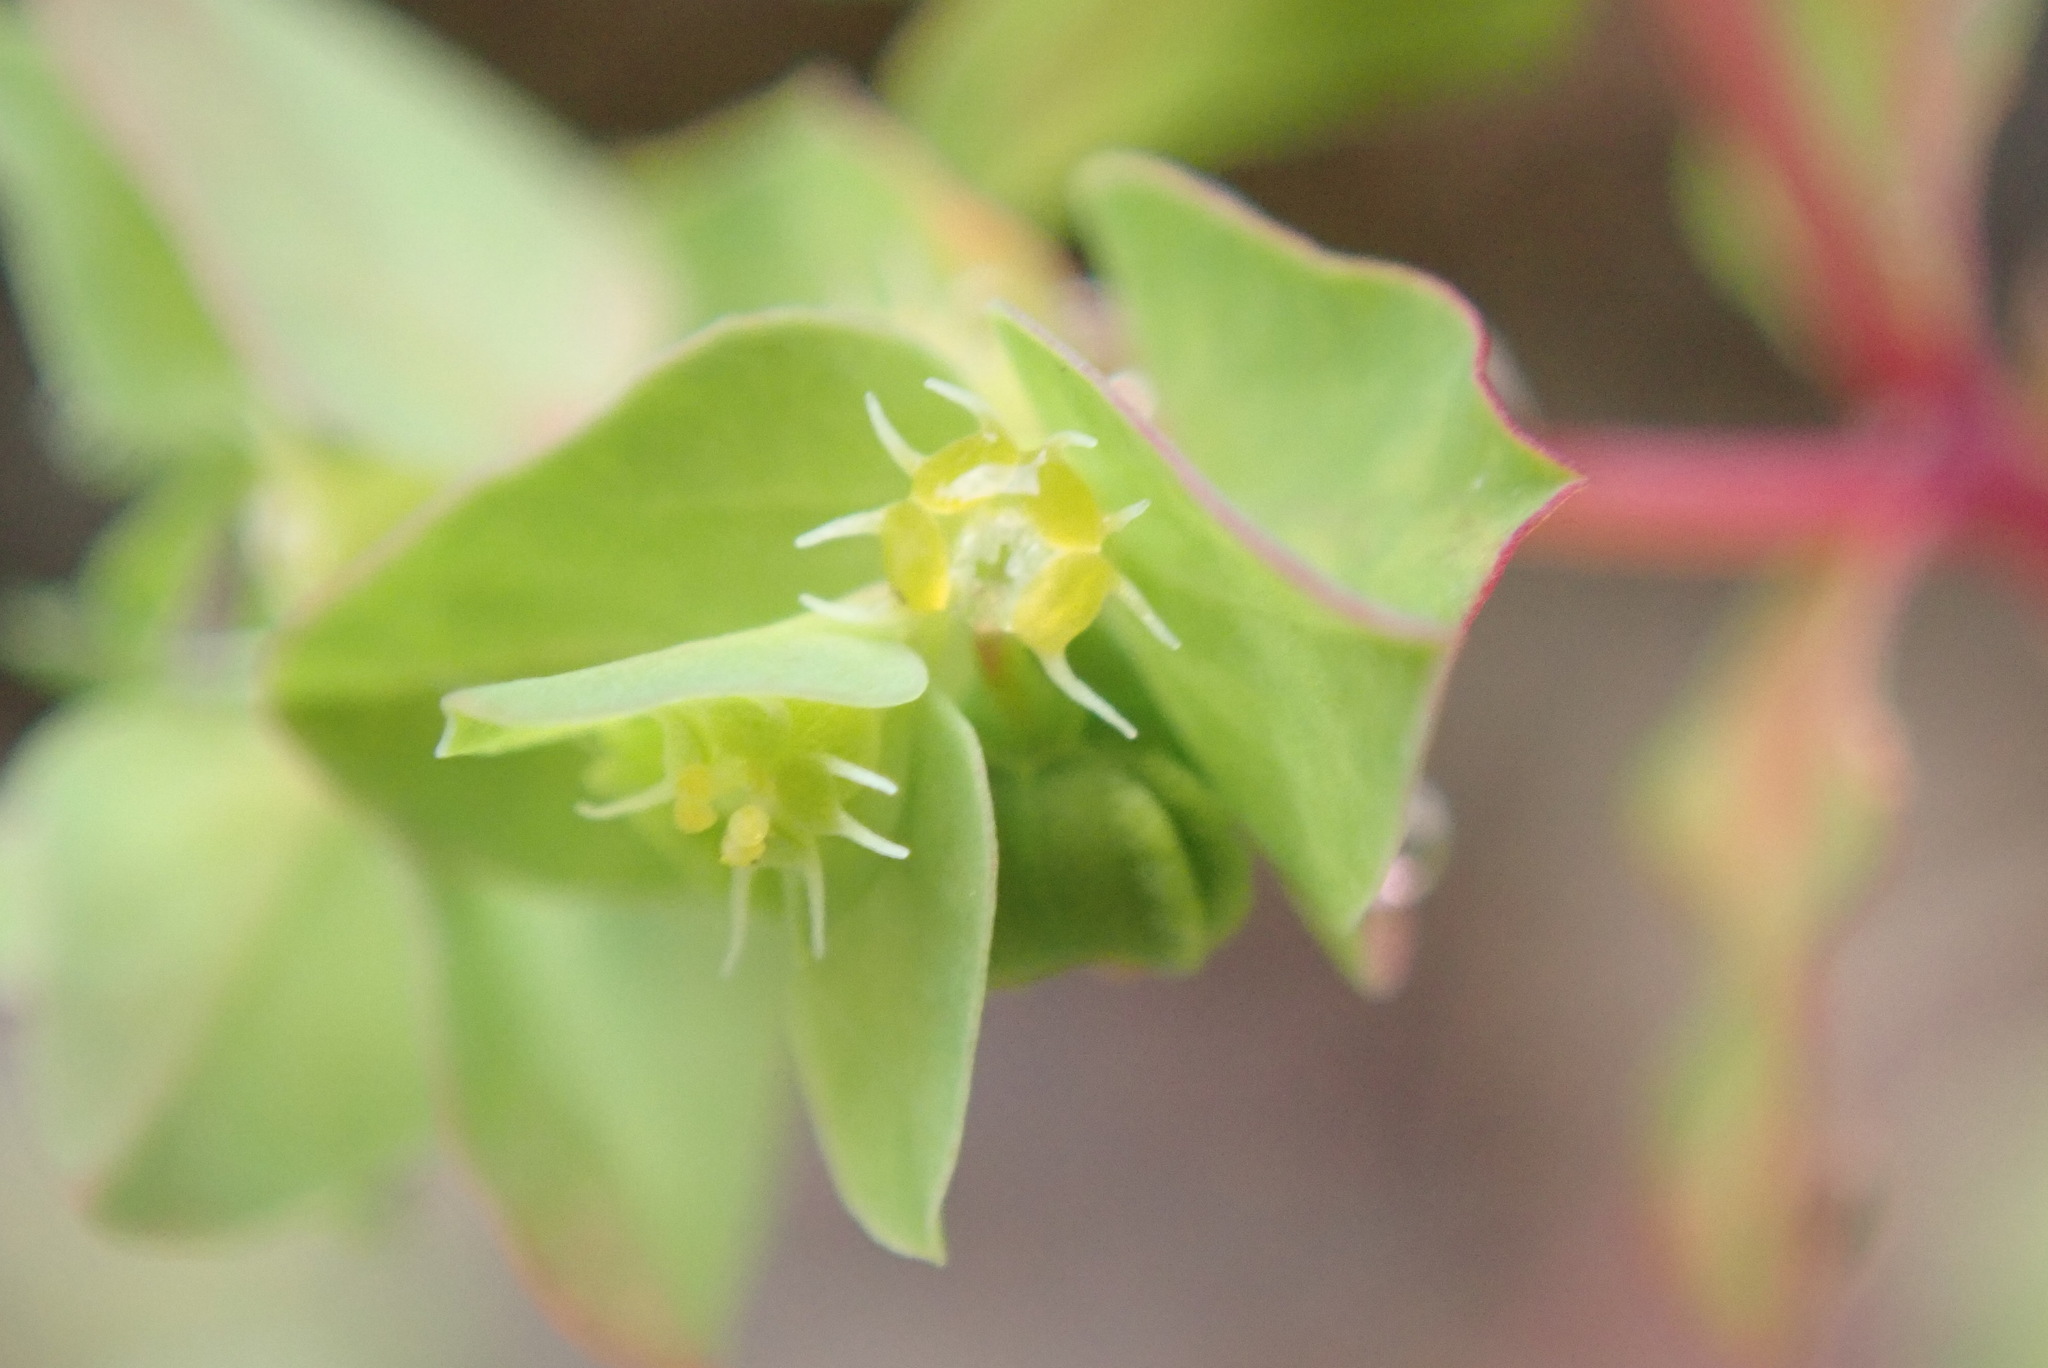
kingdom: Plantae
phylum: Tracheophyta
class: Magnoliopsida
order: Malpighiales
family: Euphorbiaceae
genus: Euphorbia
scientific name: Euphorbia peplus
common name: Petty spurge
